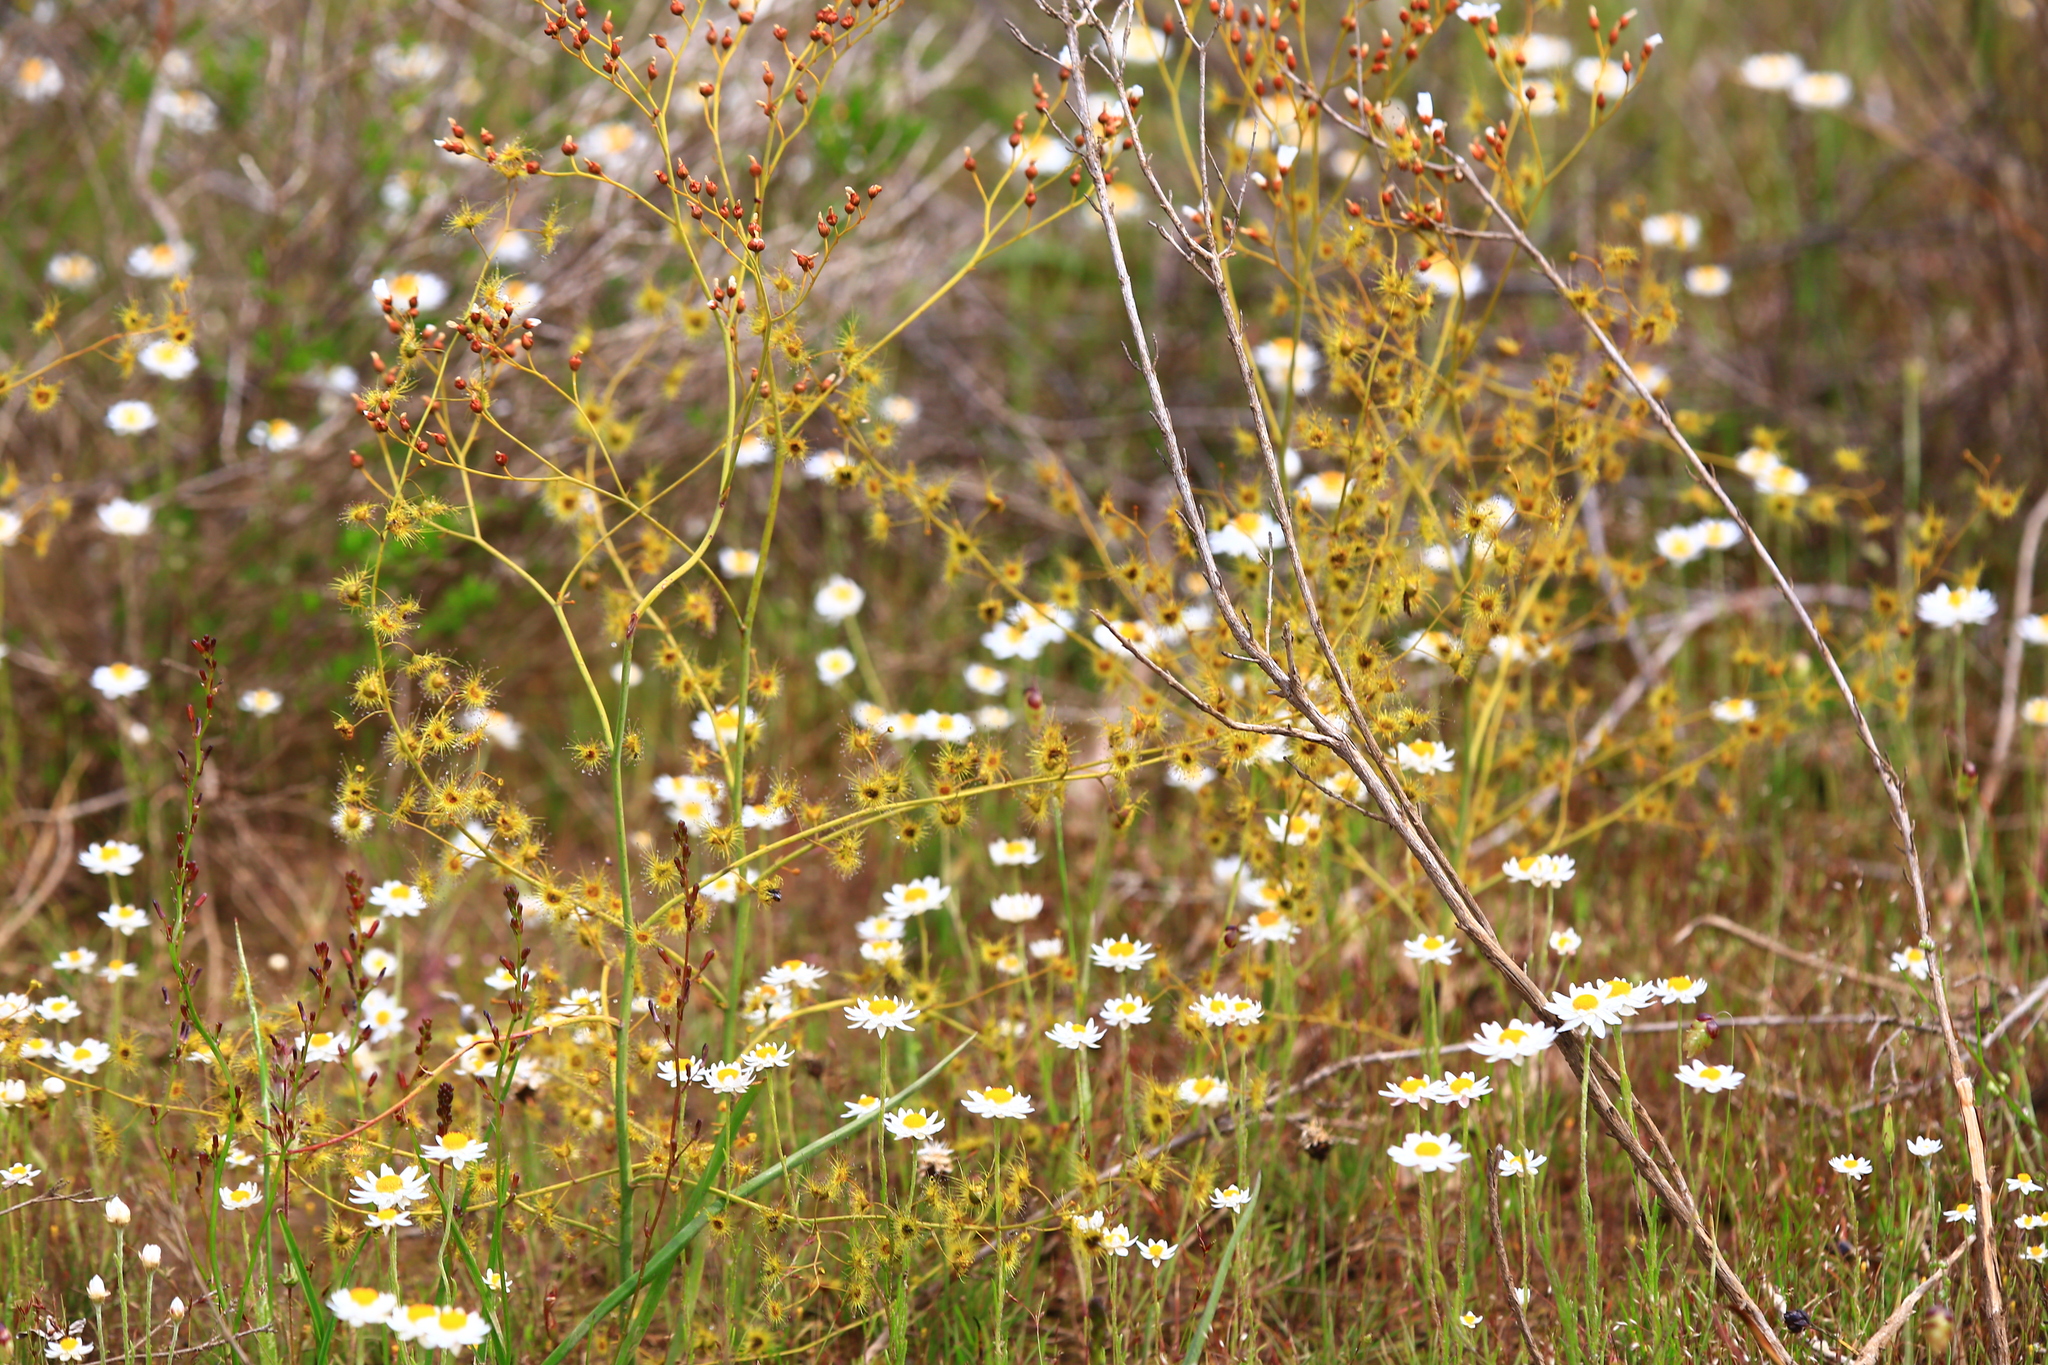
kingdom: Plantae
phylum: Tracheophyta
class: Magnoliopsida
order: Caryophyllales
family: Droseraceae
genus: Drosera
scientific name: Drosera gigantea
